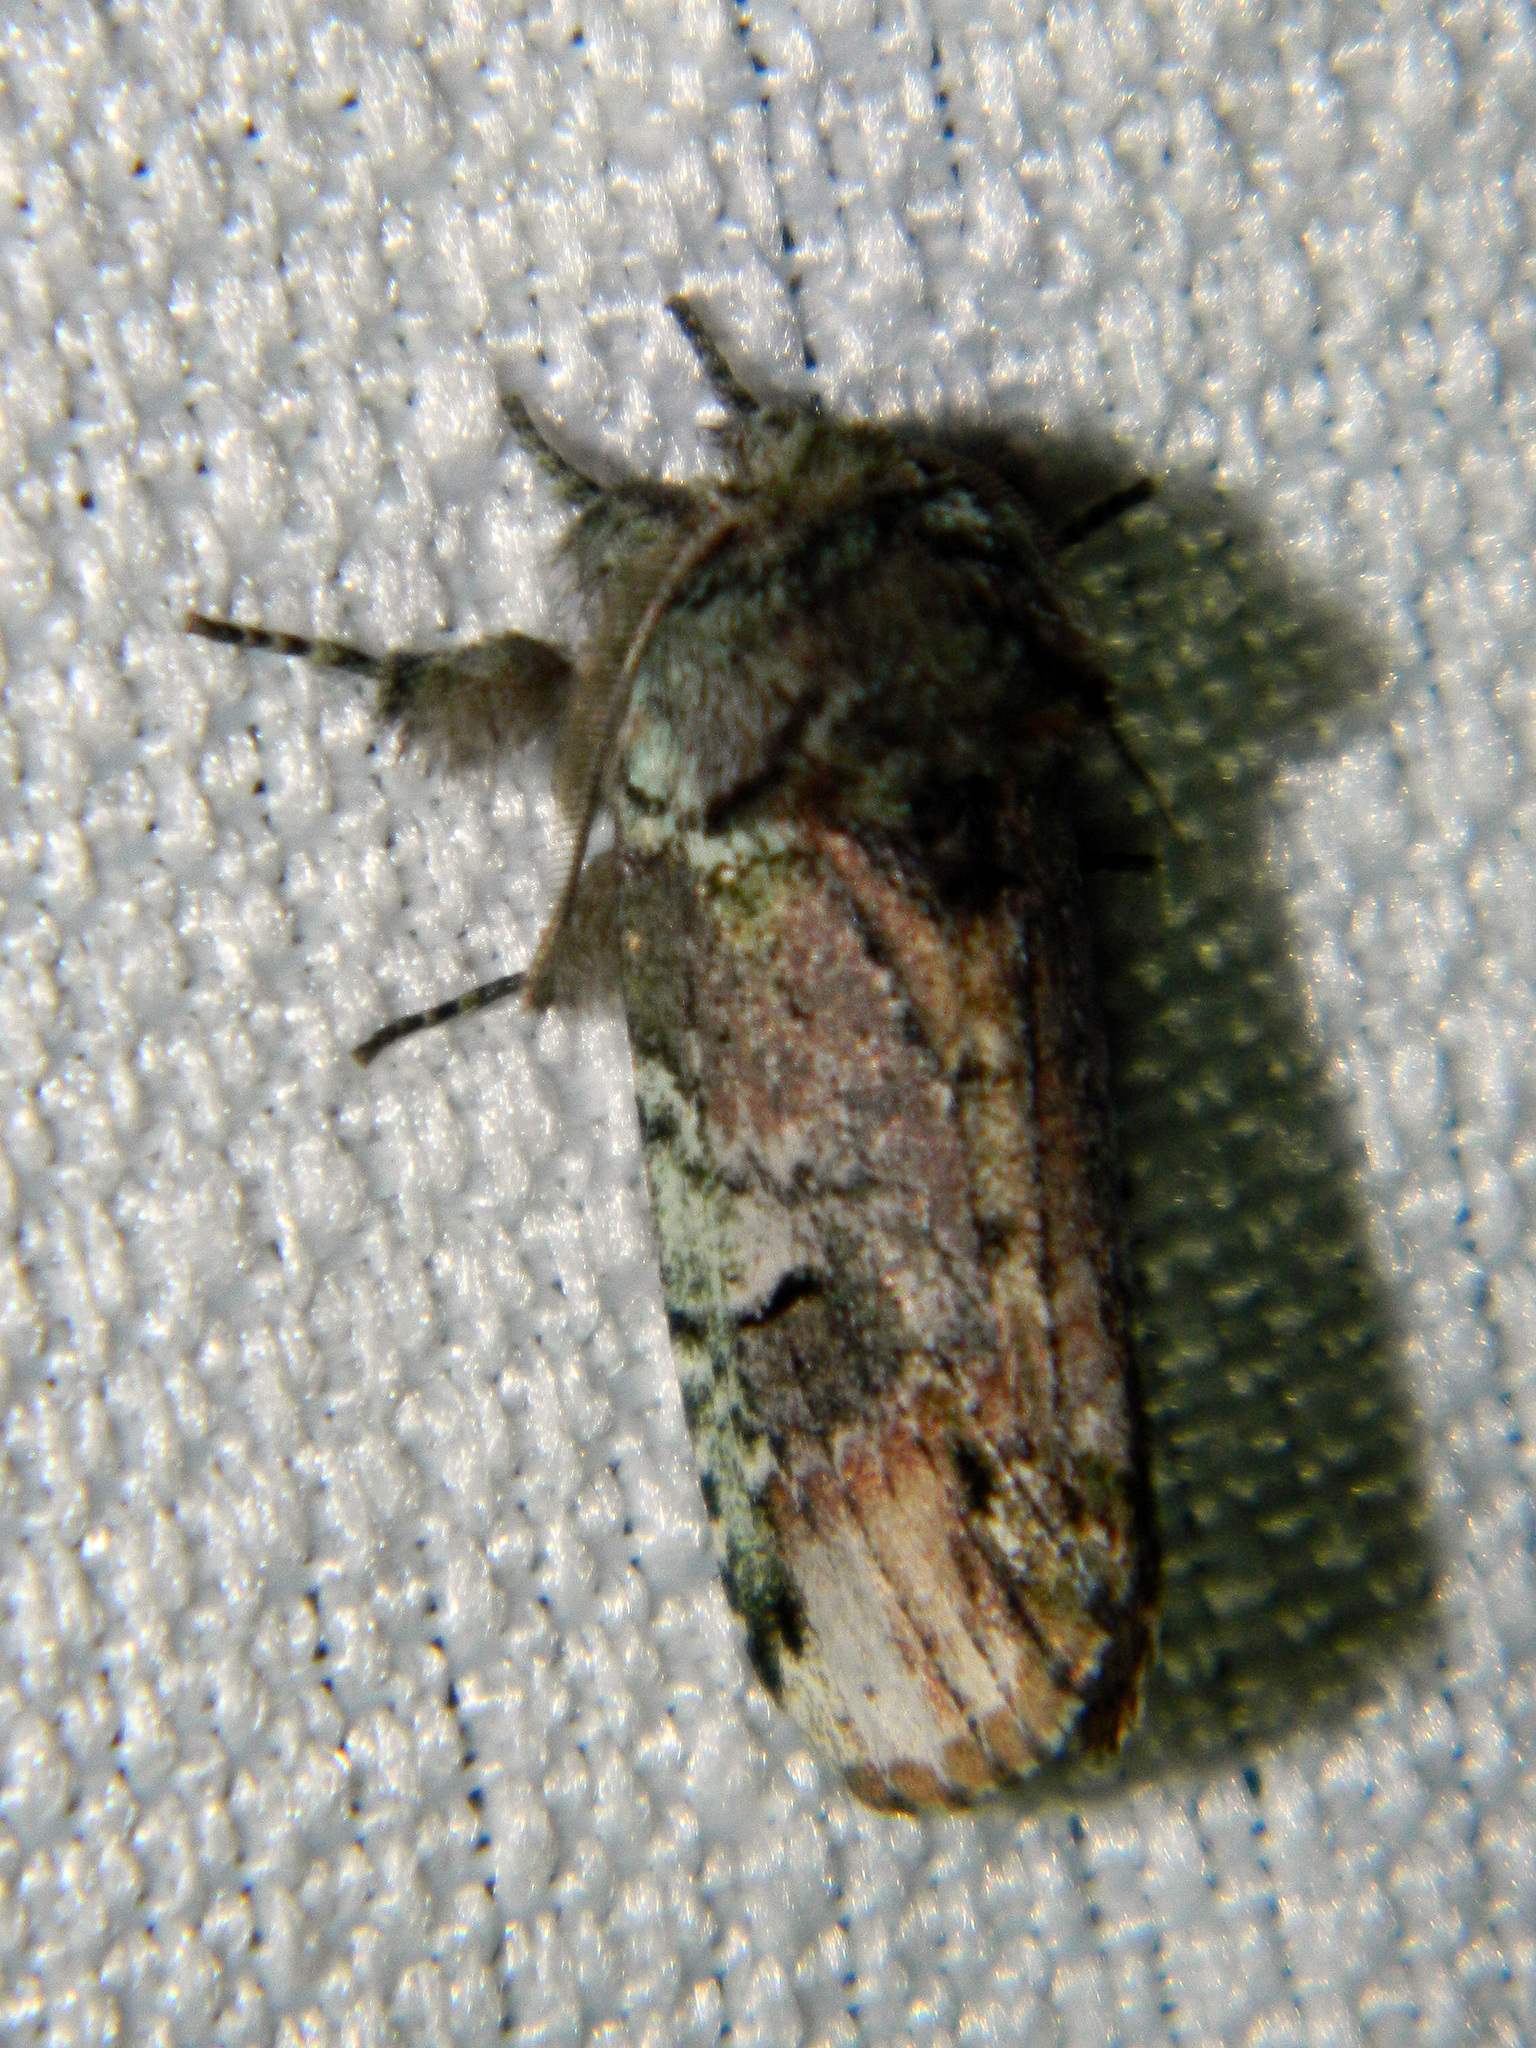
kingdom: Animalia
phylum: Arthropoda
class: Insecta
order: Lepidoptera
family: Notodontidae
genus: Schizura
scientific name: Schizura
